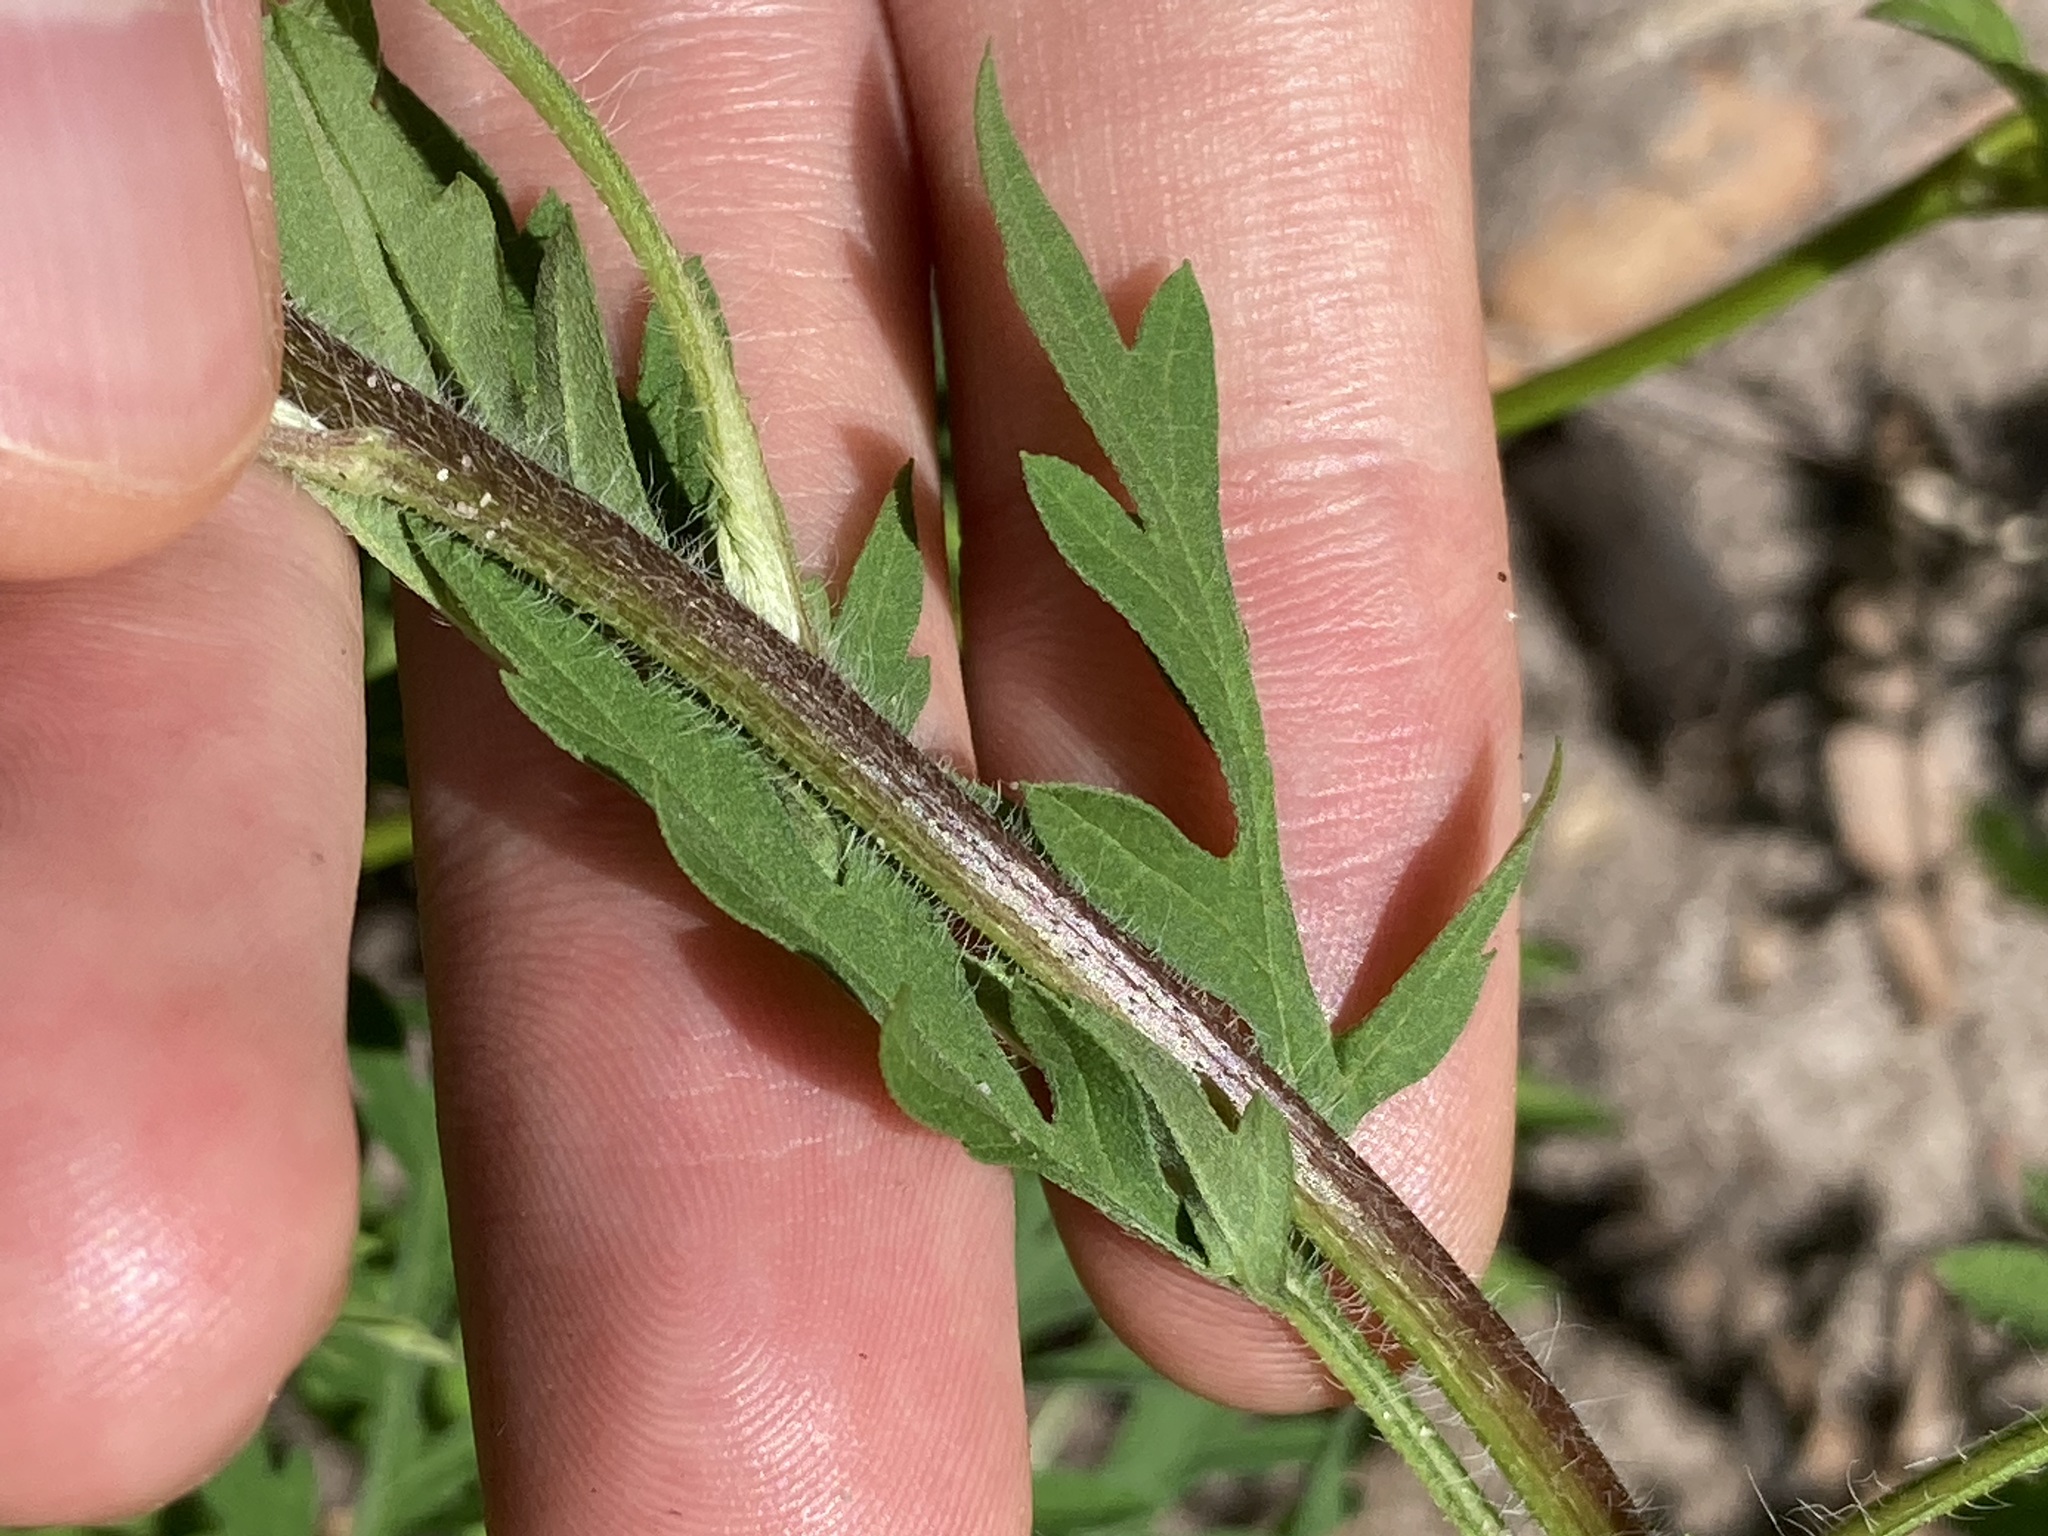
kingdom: Plantae
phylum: Tracheophyta
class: Magnoliopsida
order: Asterales
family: Asteraceae
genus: Ambrosia
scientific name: Ambrosia artemisiifolia
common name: Annual ragweed
